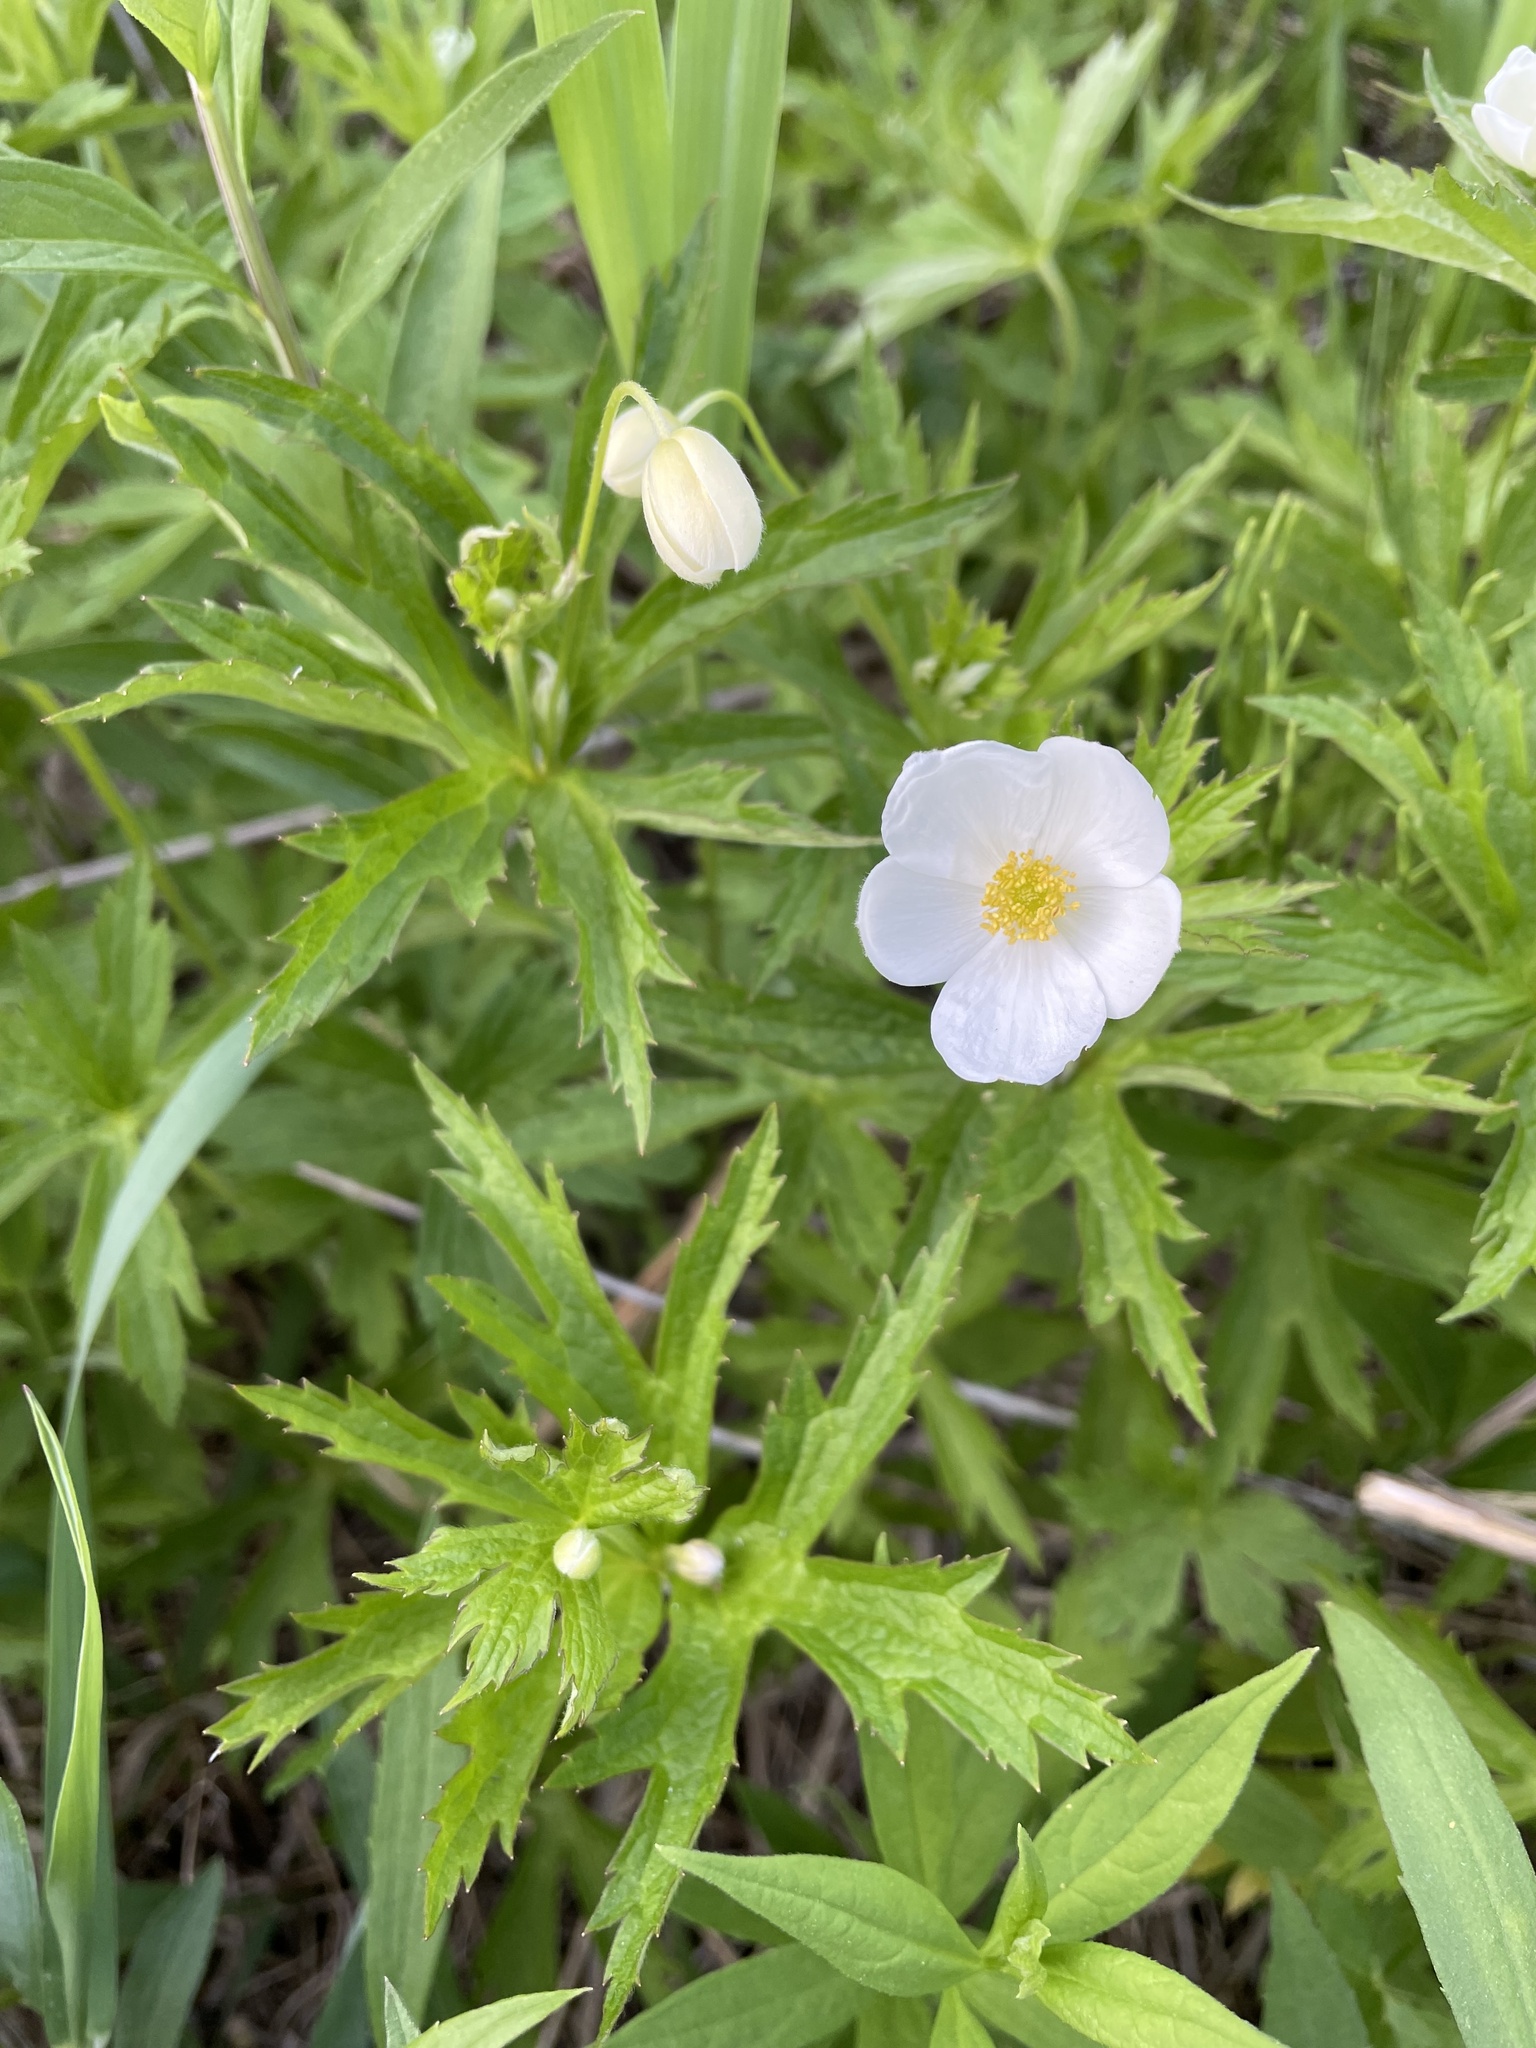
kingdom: Plantae
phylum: Tracheophyta
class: Magnoliopsida
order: Ranunculales
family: Ranunculaceae
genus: Anemonastrum
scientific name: Anemonastrum canadense
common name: Canada anemone
